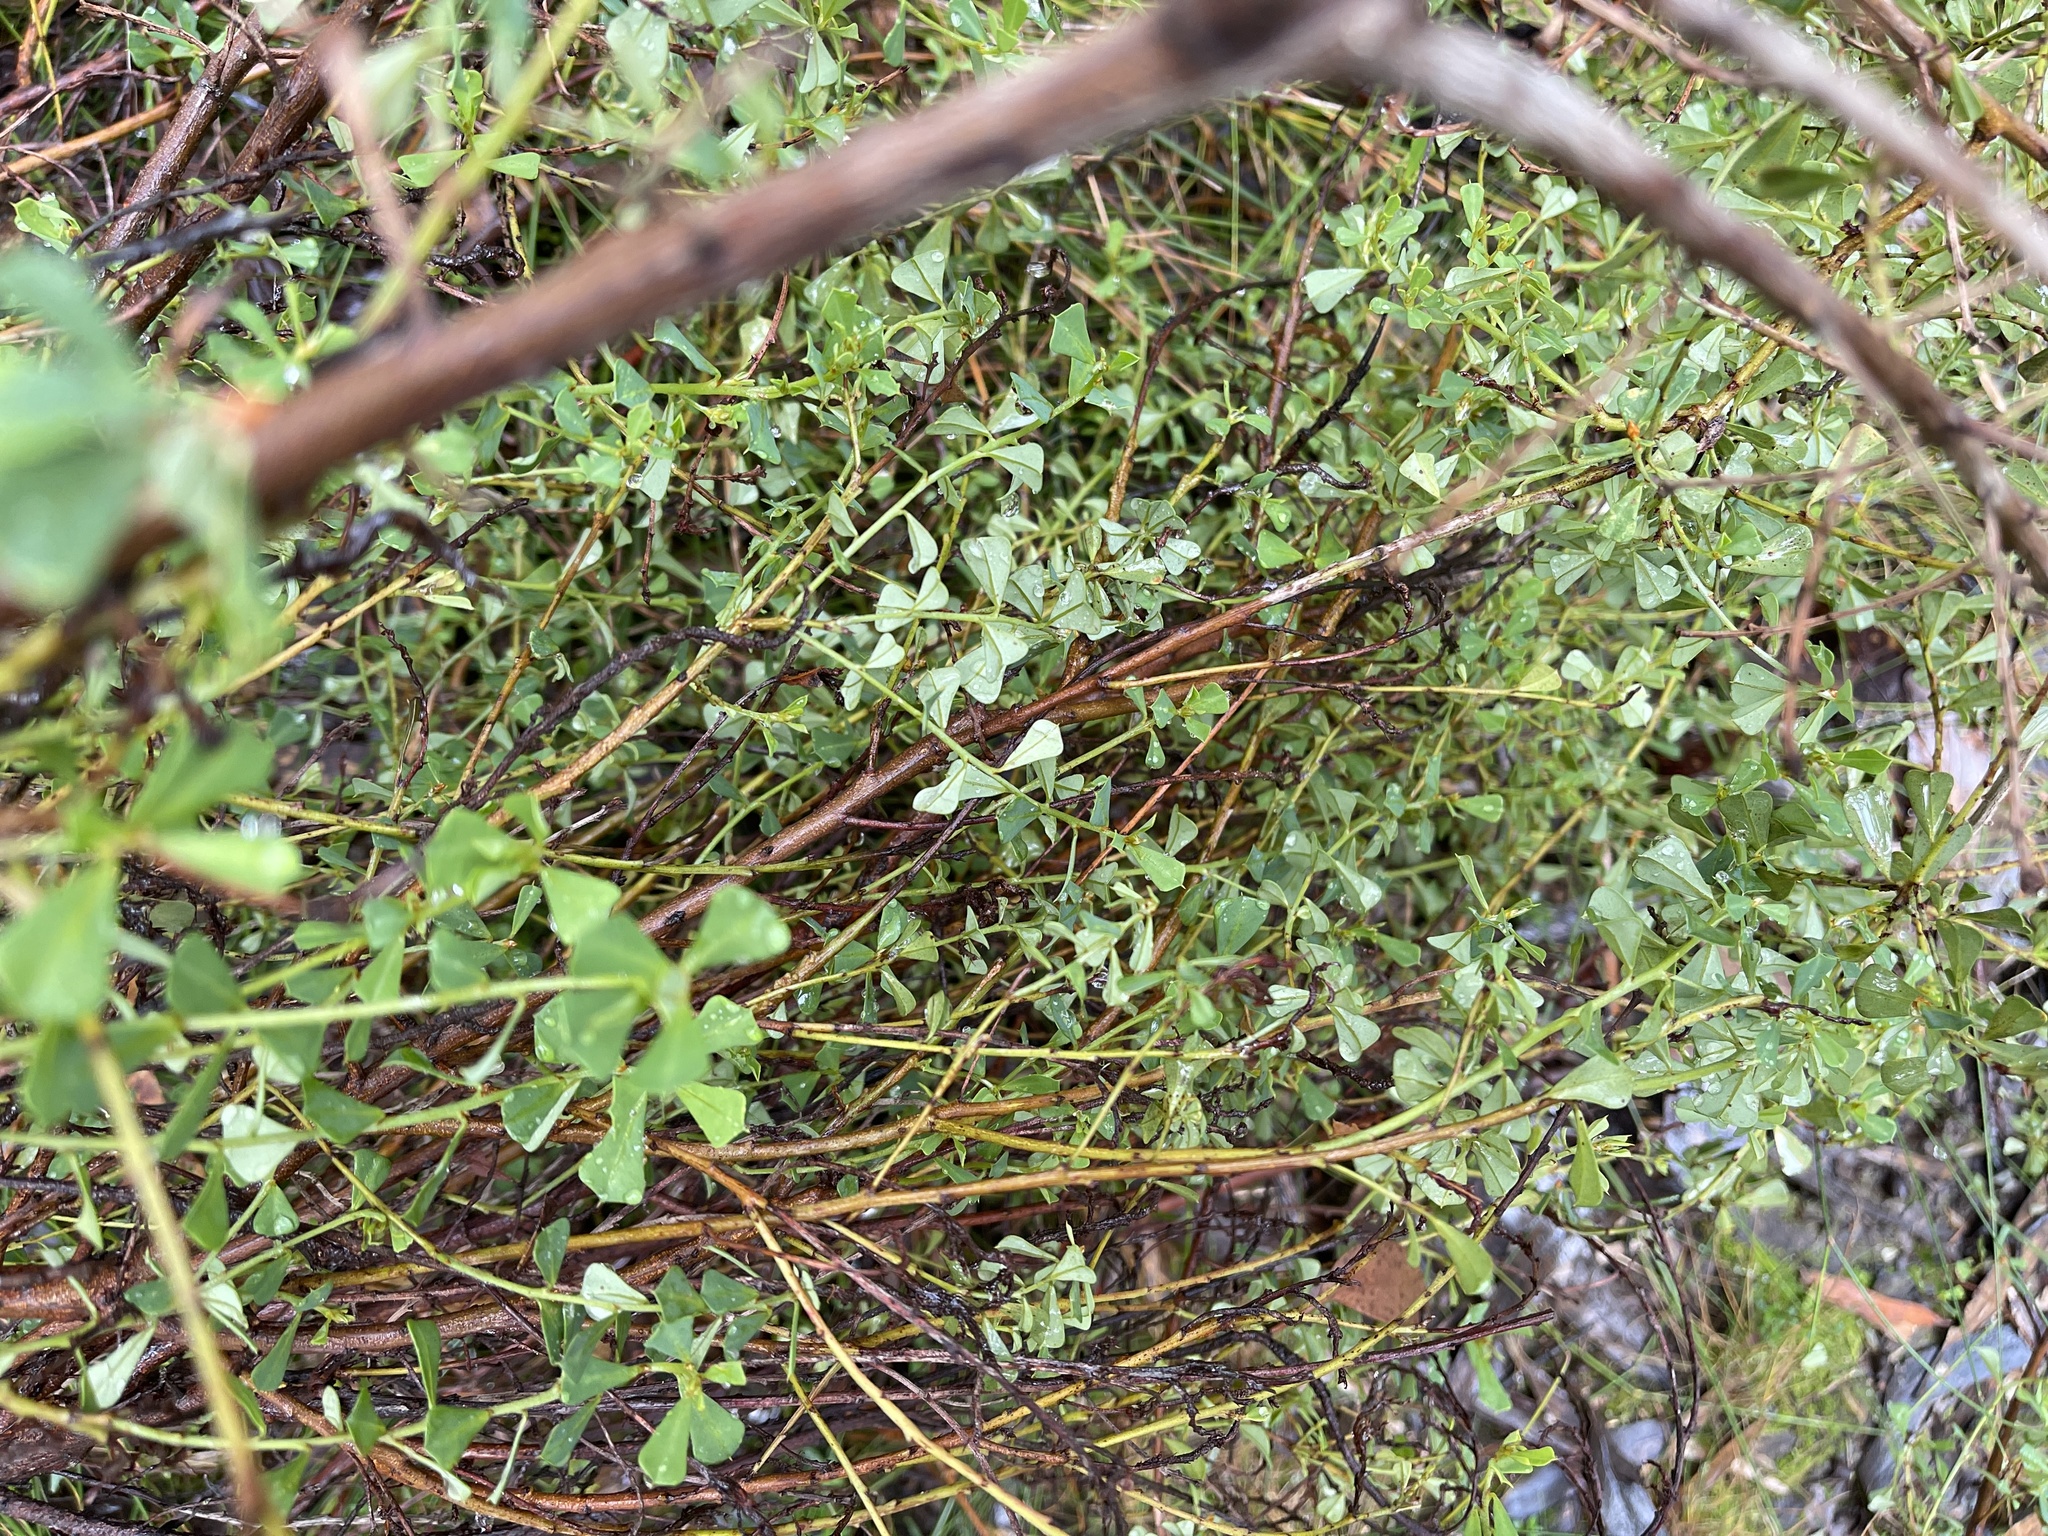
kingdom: Plantae
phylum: Tracheophyta
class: Magnoliopsida
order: Fabales
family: Fabaceae
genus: Pultenaea
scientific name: Pultenaea daphnoides
